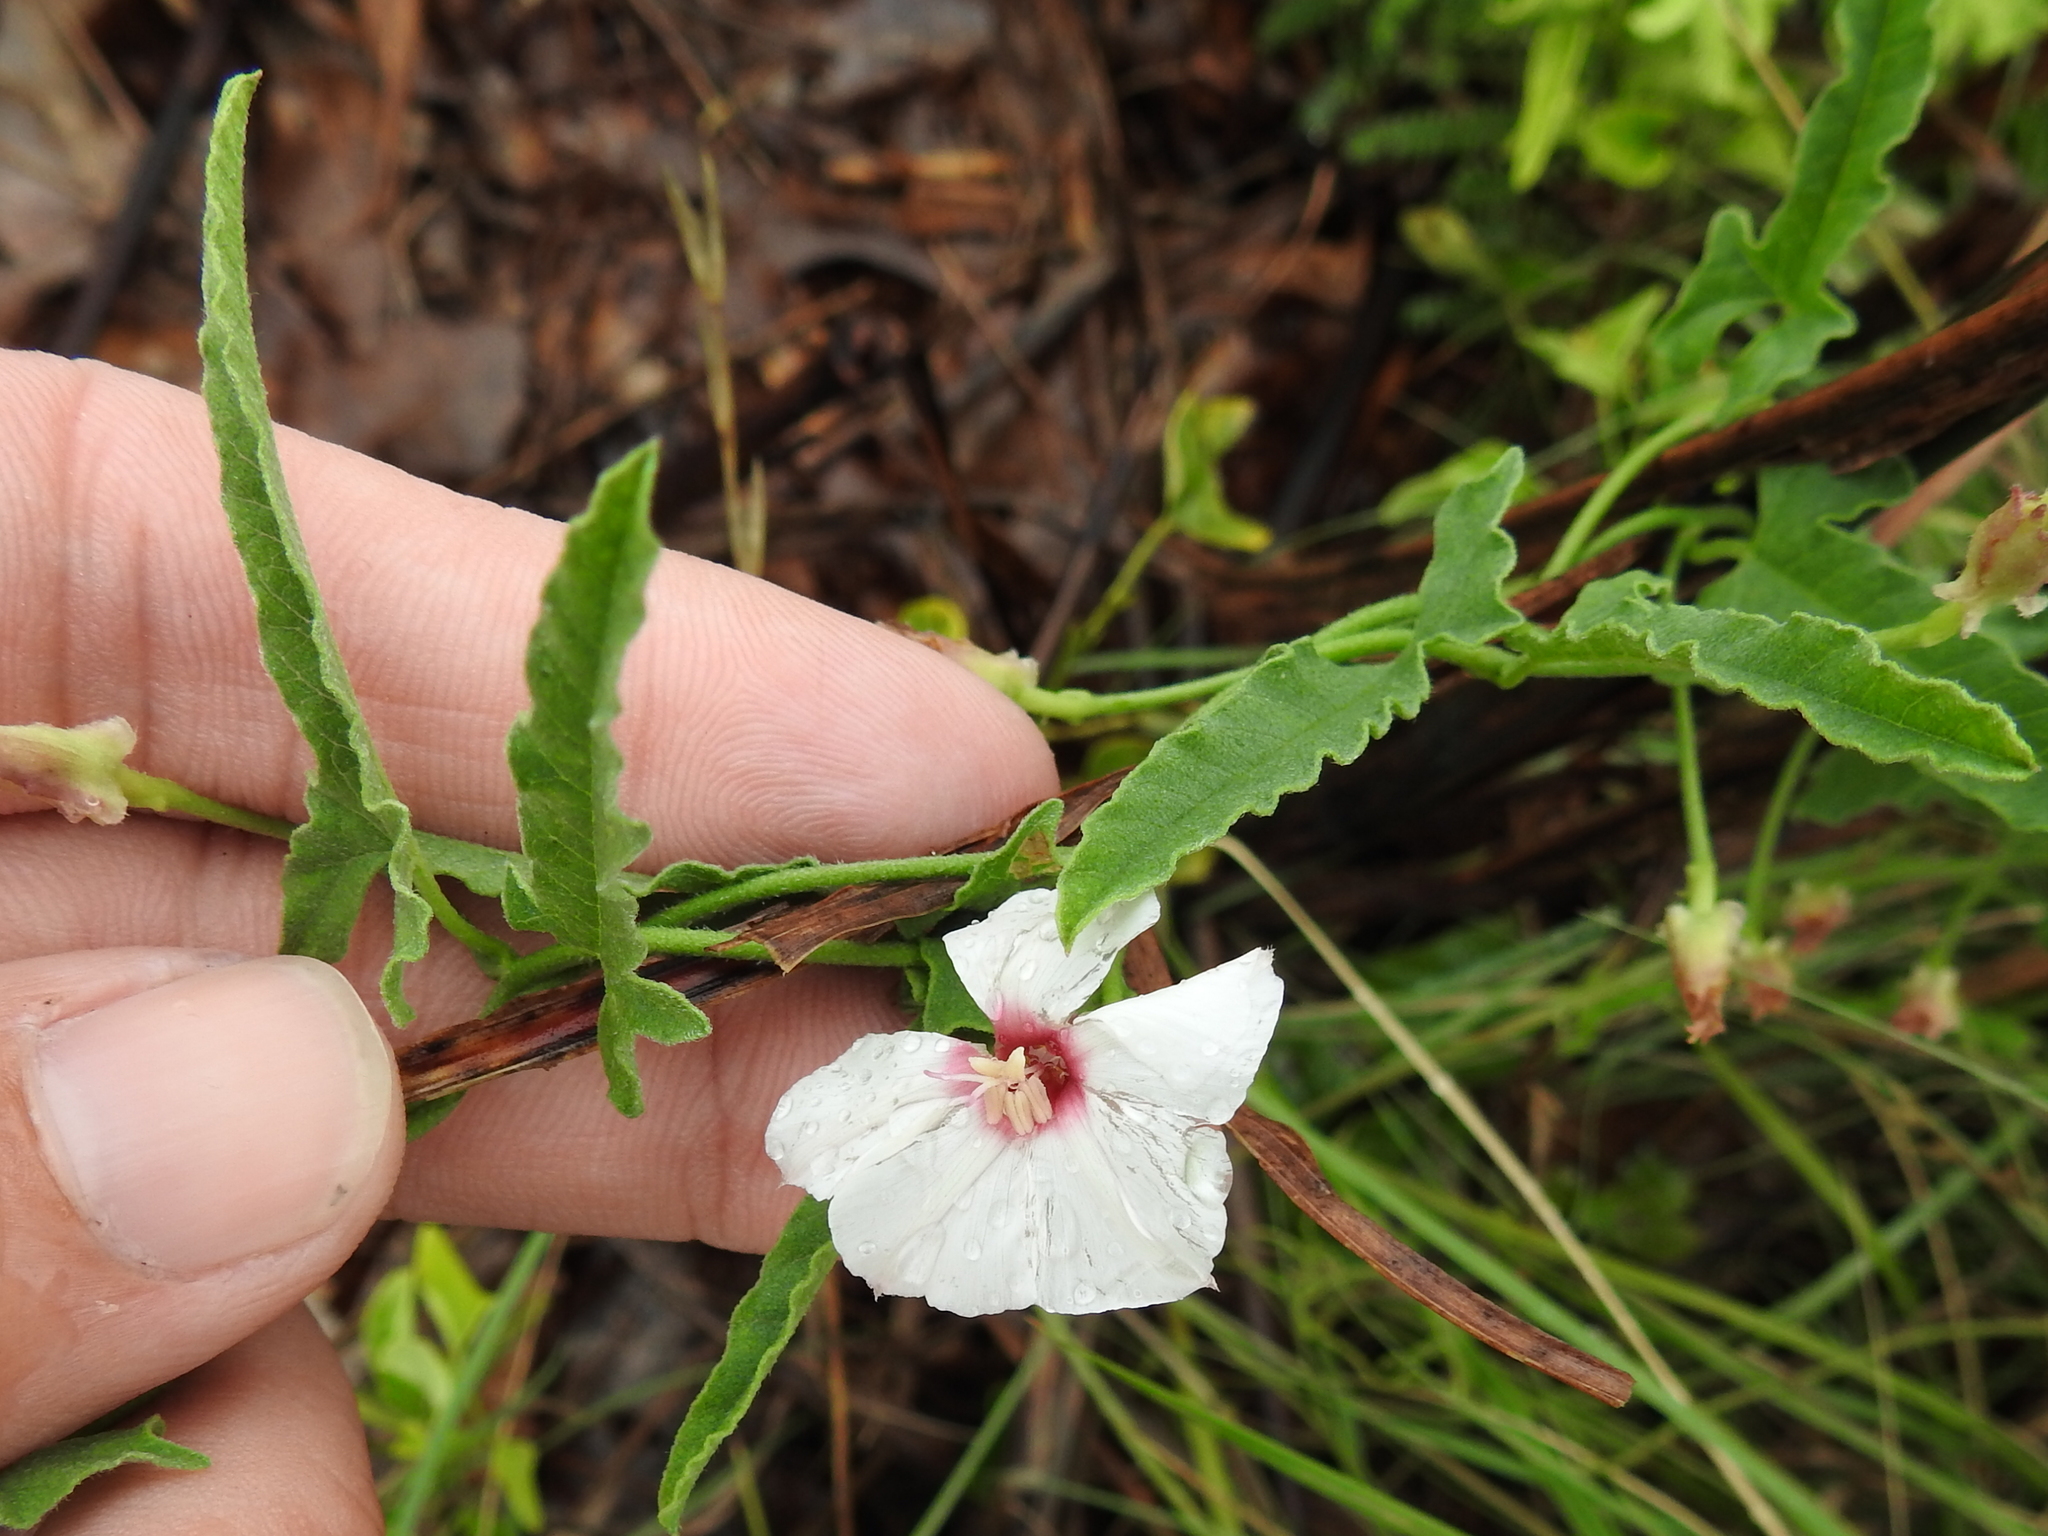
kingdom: Plantae
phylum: Tracheophyta
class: Magnoliopsida
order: Solanales
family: Convolvulaceae
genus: Convolvulus
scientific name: Convolvulus equitans
